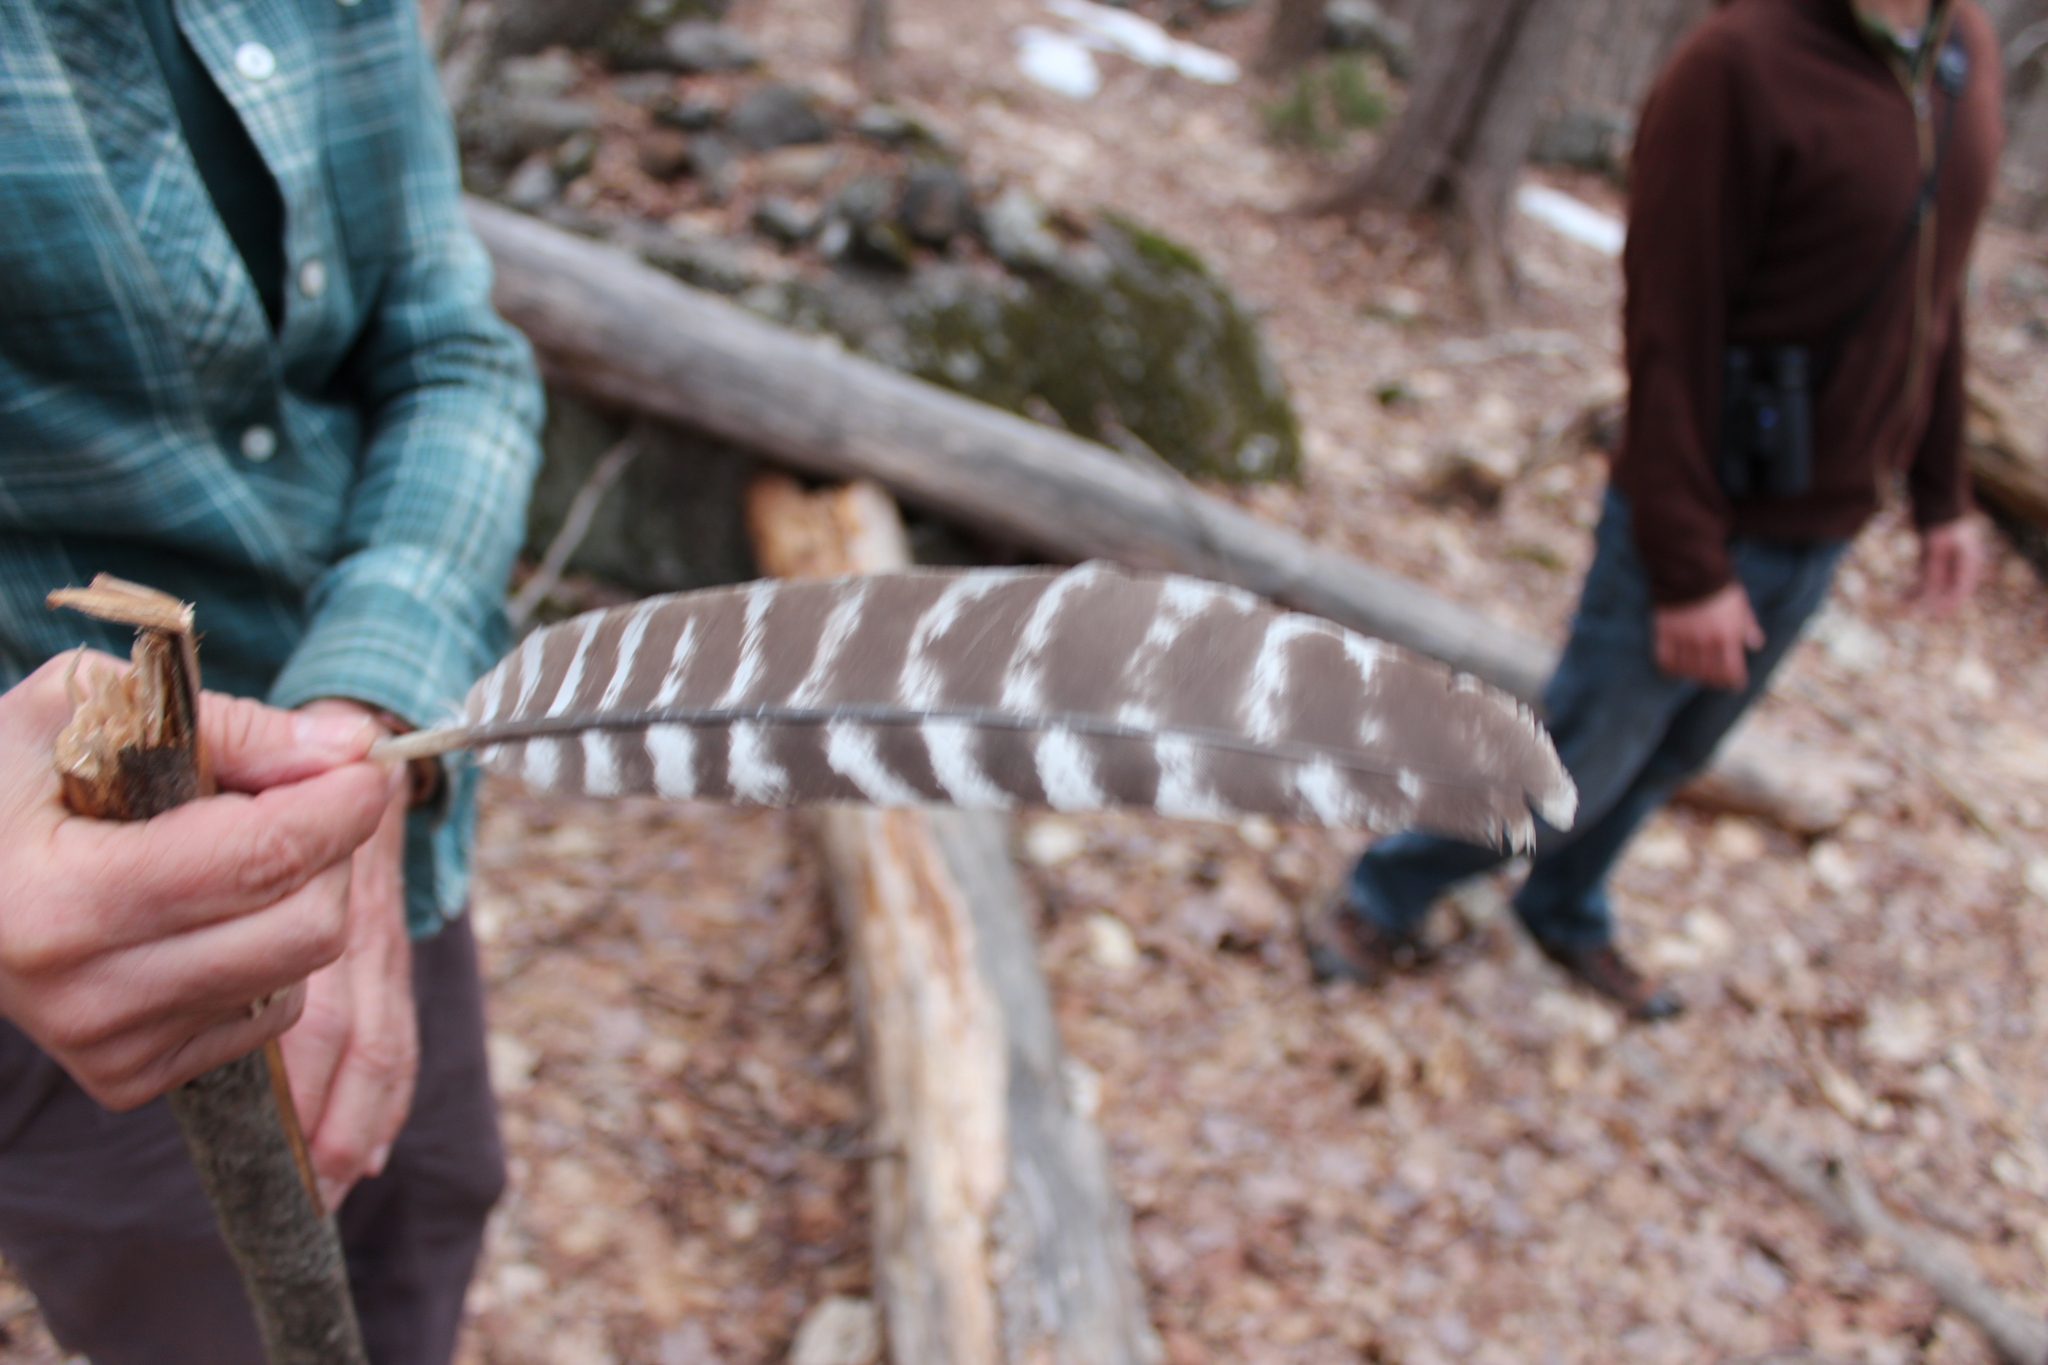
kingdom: Animalia
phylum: Chordata
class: Aves
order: Galliformes
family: Phasianidae
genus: Meleagris
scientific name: Meleagris gallopavo
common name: Wild turkey
